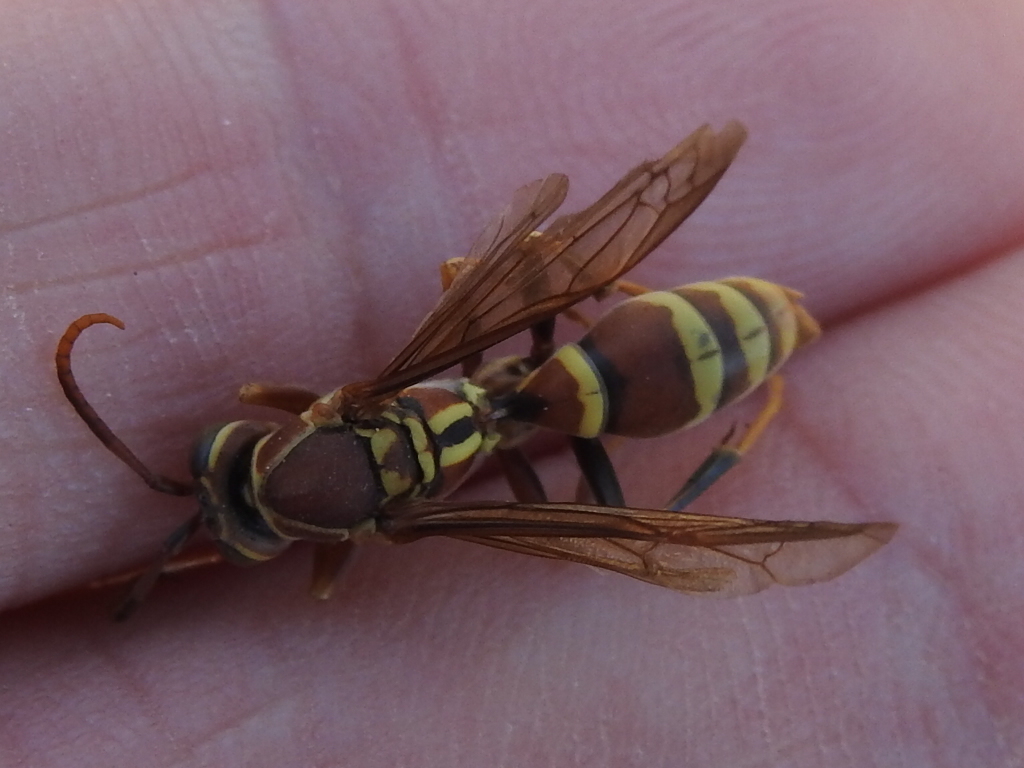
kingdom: Animalia
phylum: Arthropoda
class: Insecta
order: Hymenoptera
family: Eumenidae
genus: Polistes
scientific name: Polistes exclamans
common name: Paper wasp
